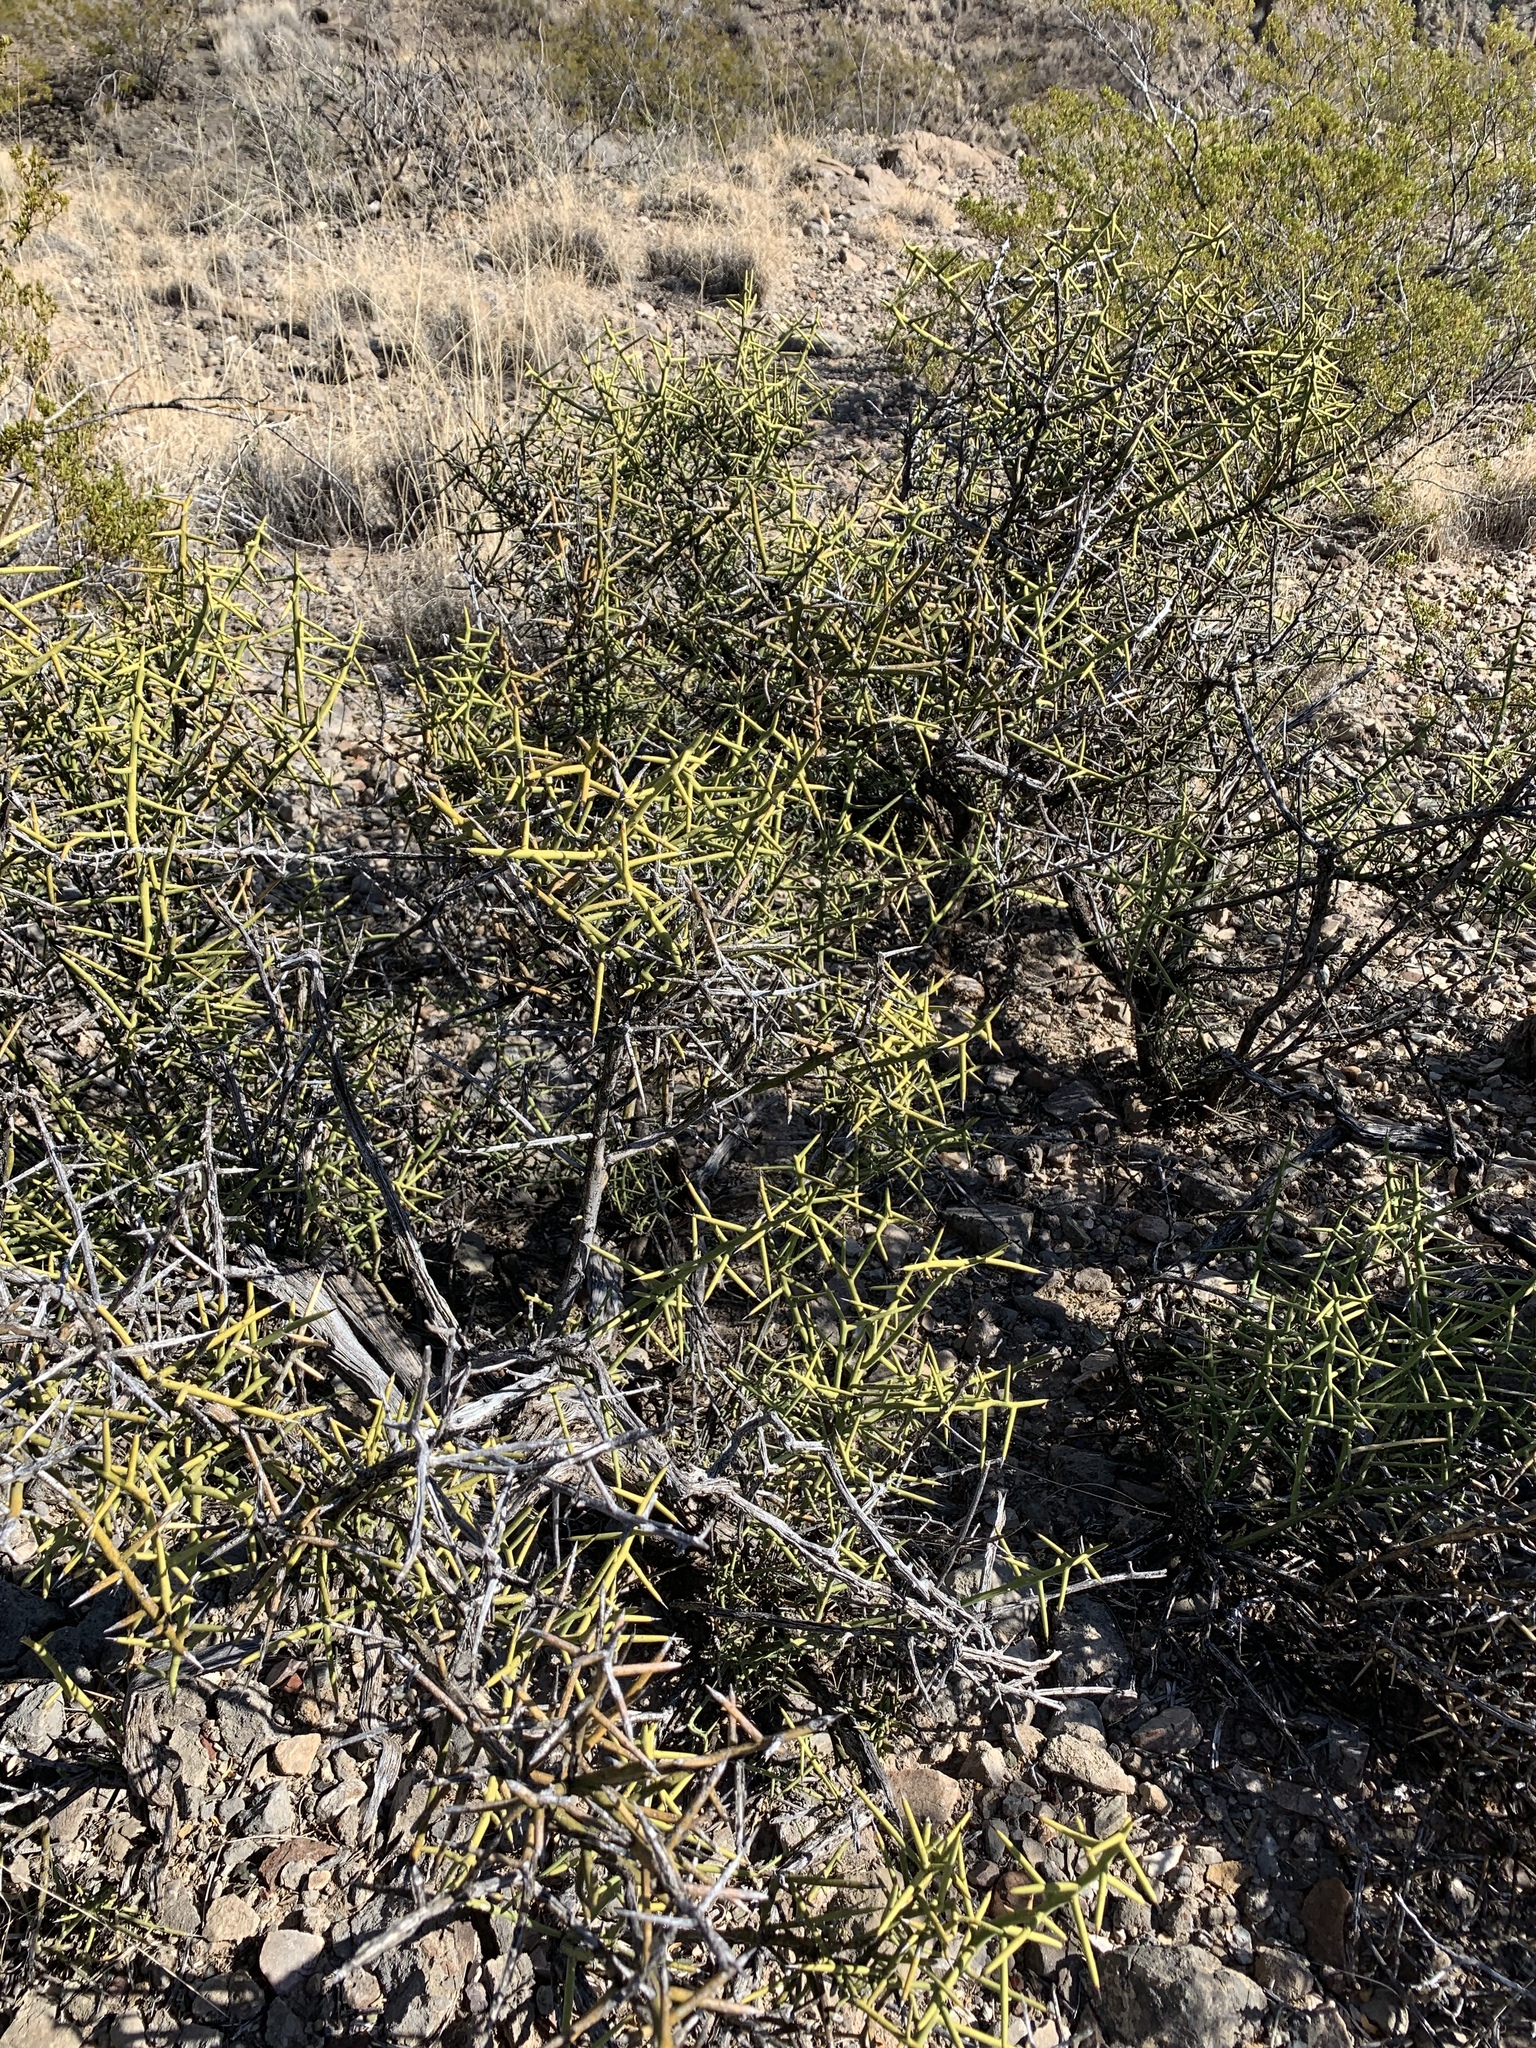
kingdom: Plantae
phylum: Tracheophyta
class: Magnoliopsida
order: Brassicales
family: Koeberliniaceae
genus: Koeberlinia
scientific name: Koeberlinia spinosa
